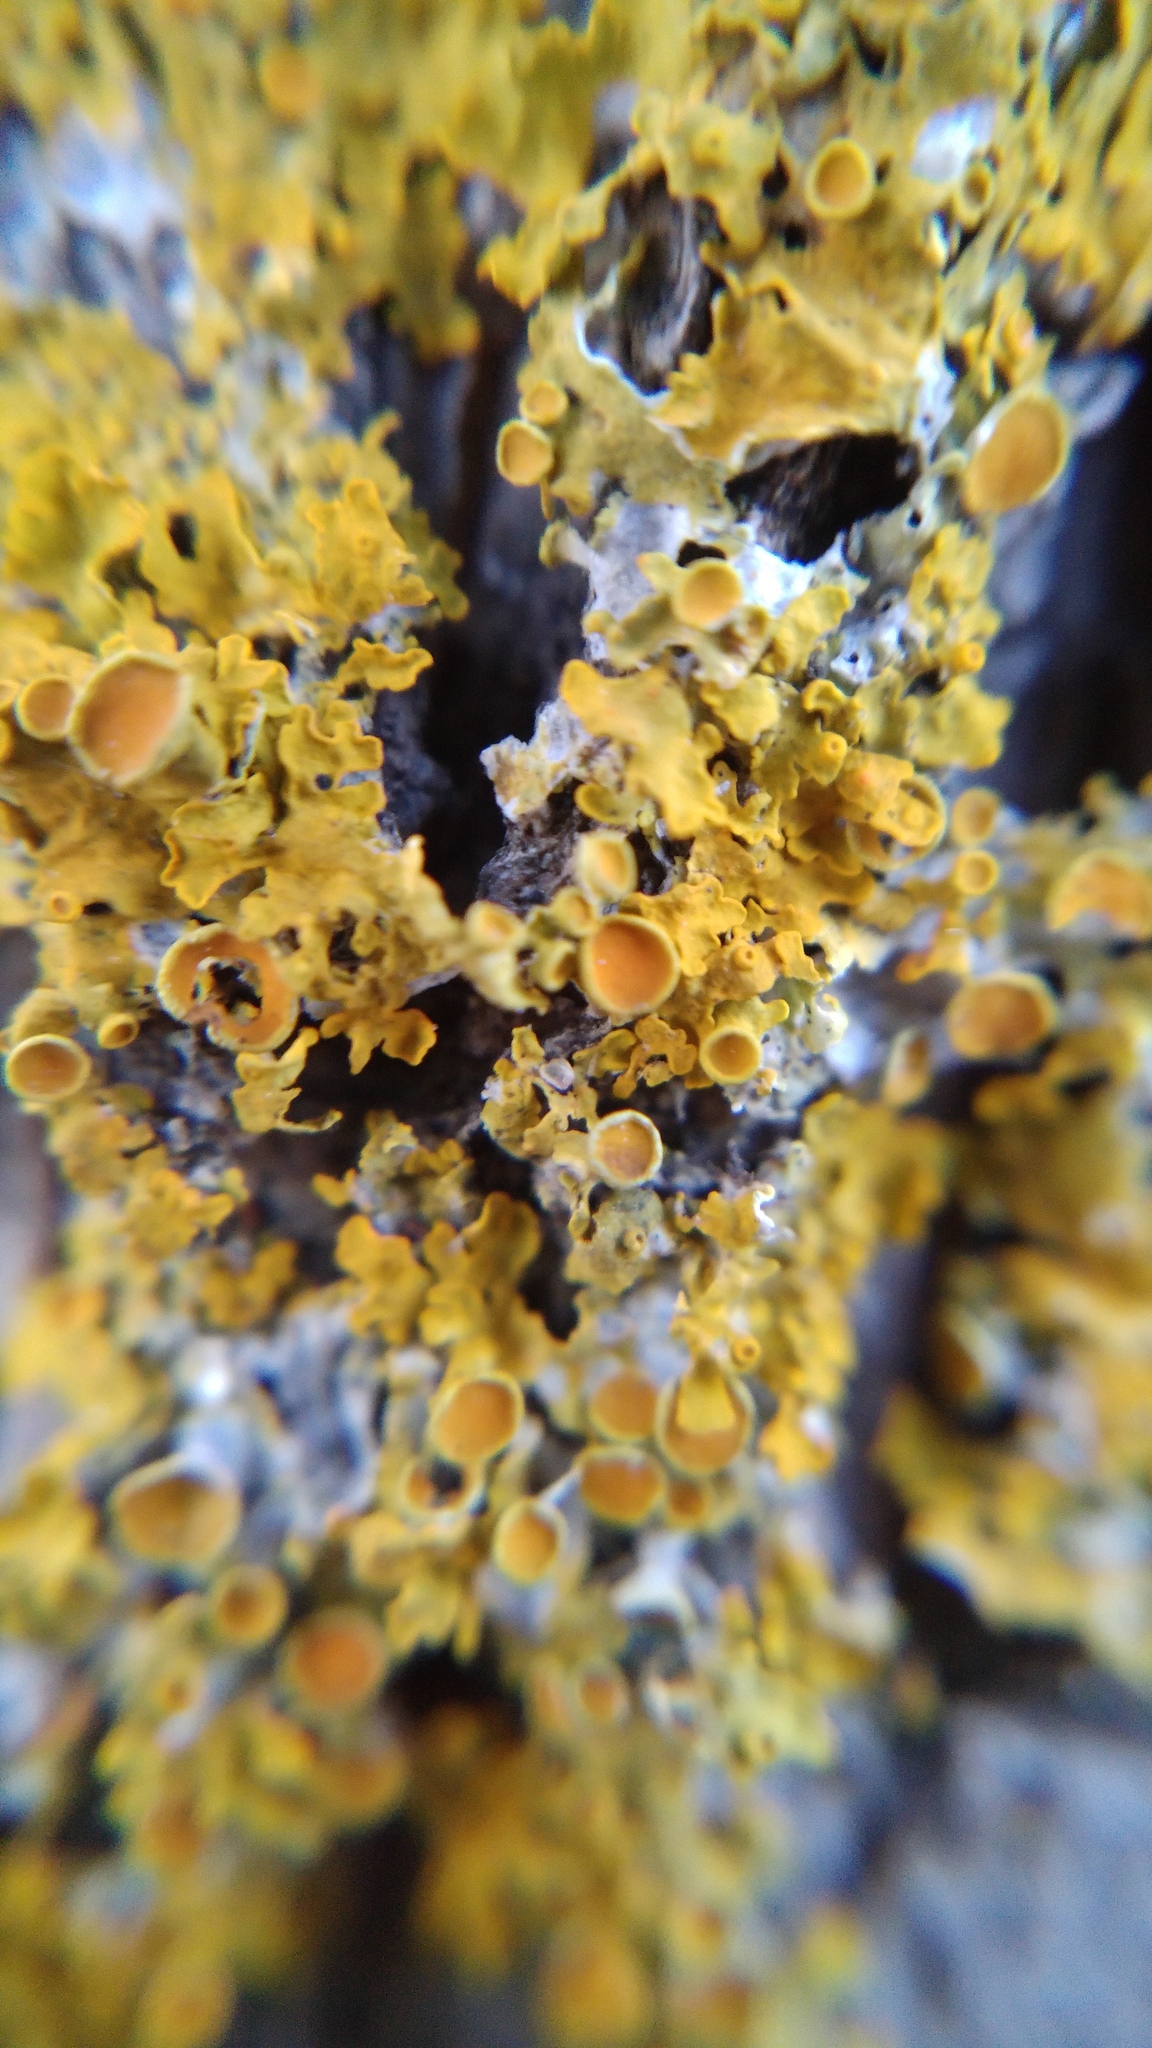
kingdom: Fungi
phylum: Ascomycota
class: Lecanoromycetes
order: Teloschistales
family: Teloschistaceae
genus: Xanthoria
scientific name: Xanthoria parietina
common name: Common orange lichen
